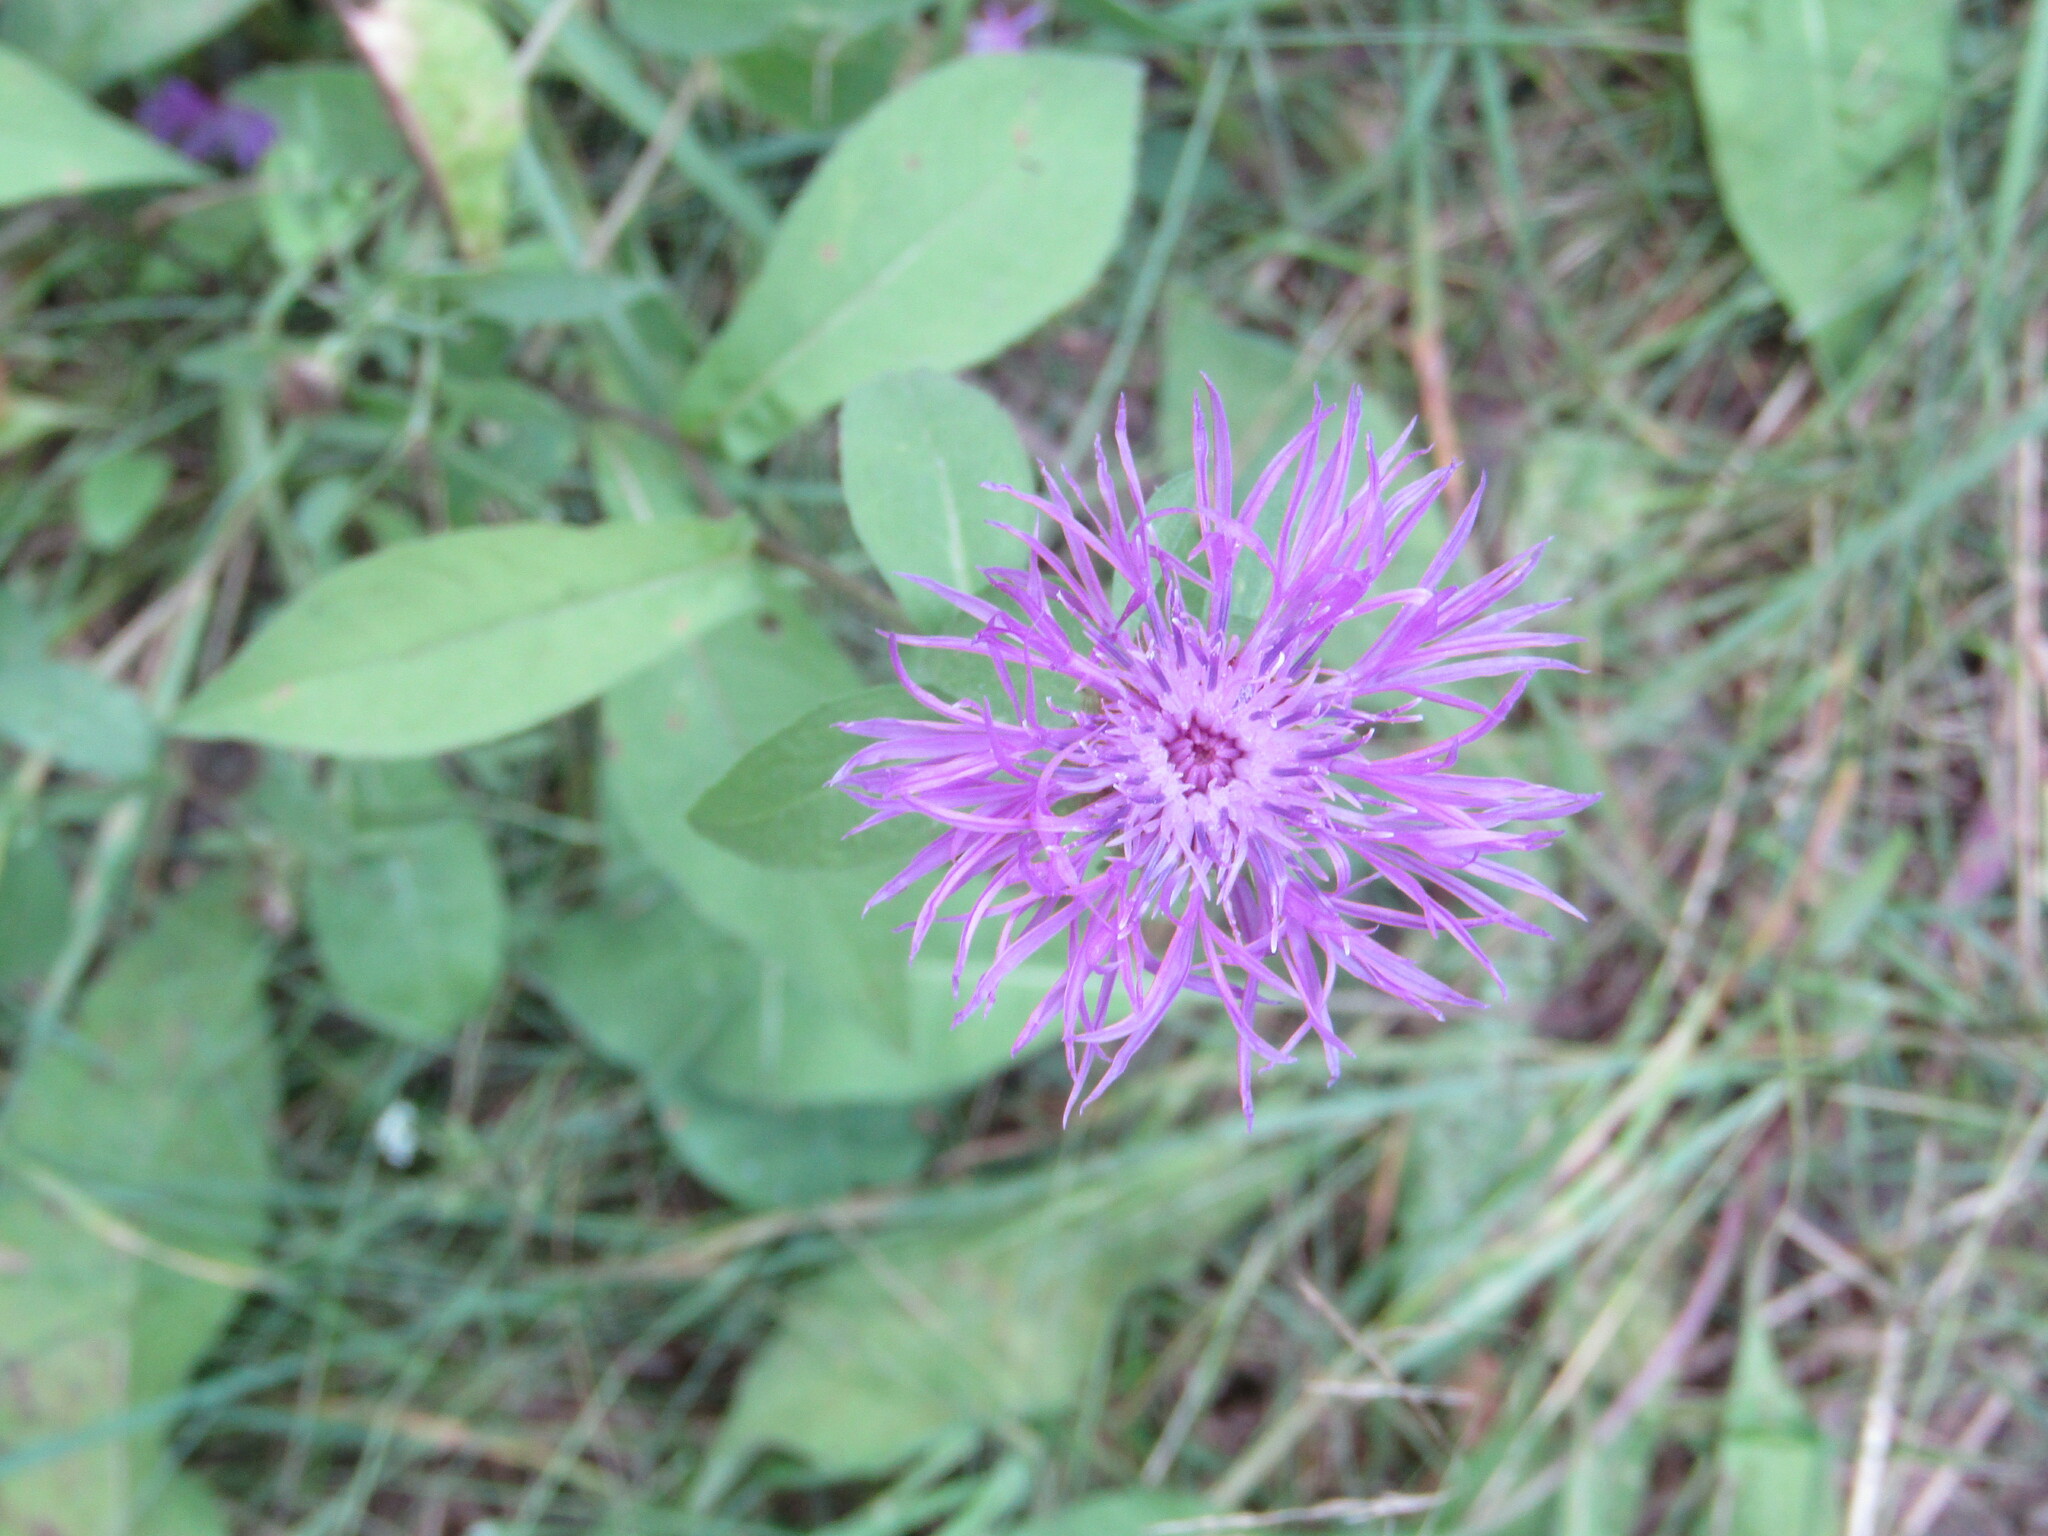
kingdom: Plantae
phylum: Tracheophyta
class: Magnoliopsida
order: Asterales
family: Asteraceae
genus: Centaurea
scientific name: Centaurea phrygia
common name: Wig knapweed
